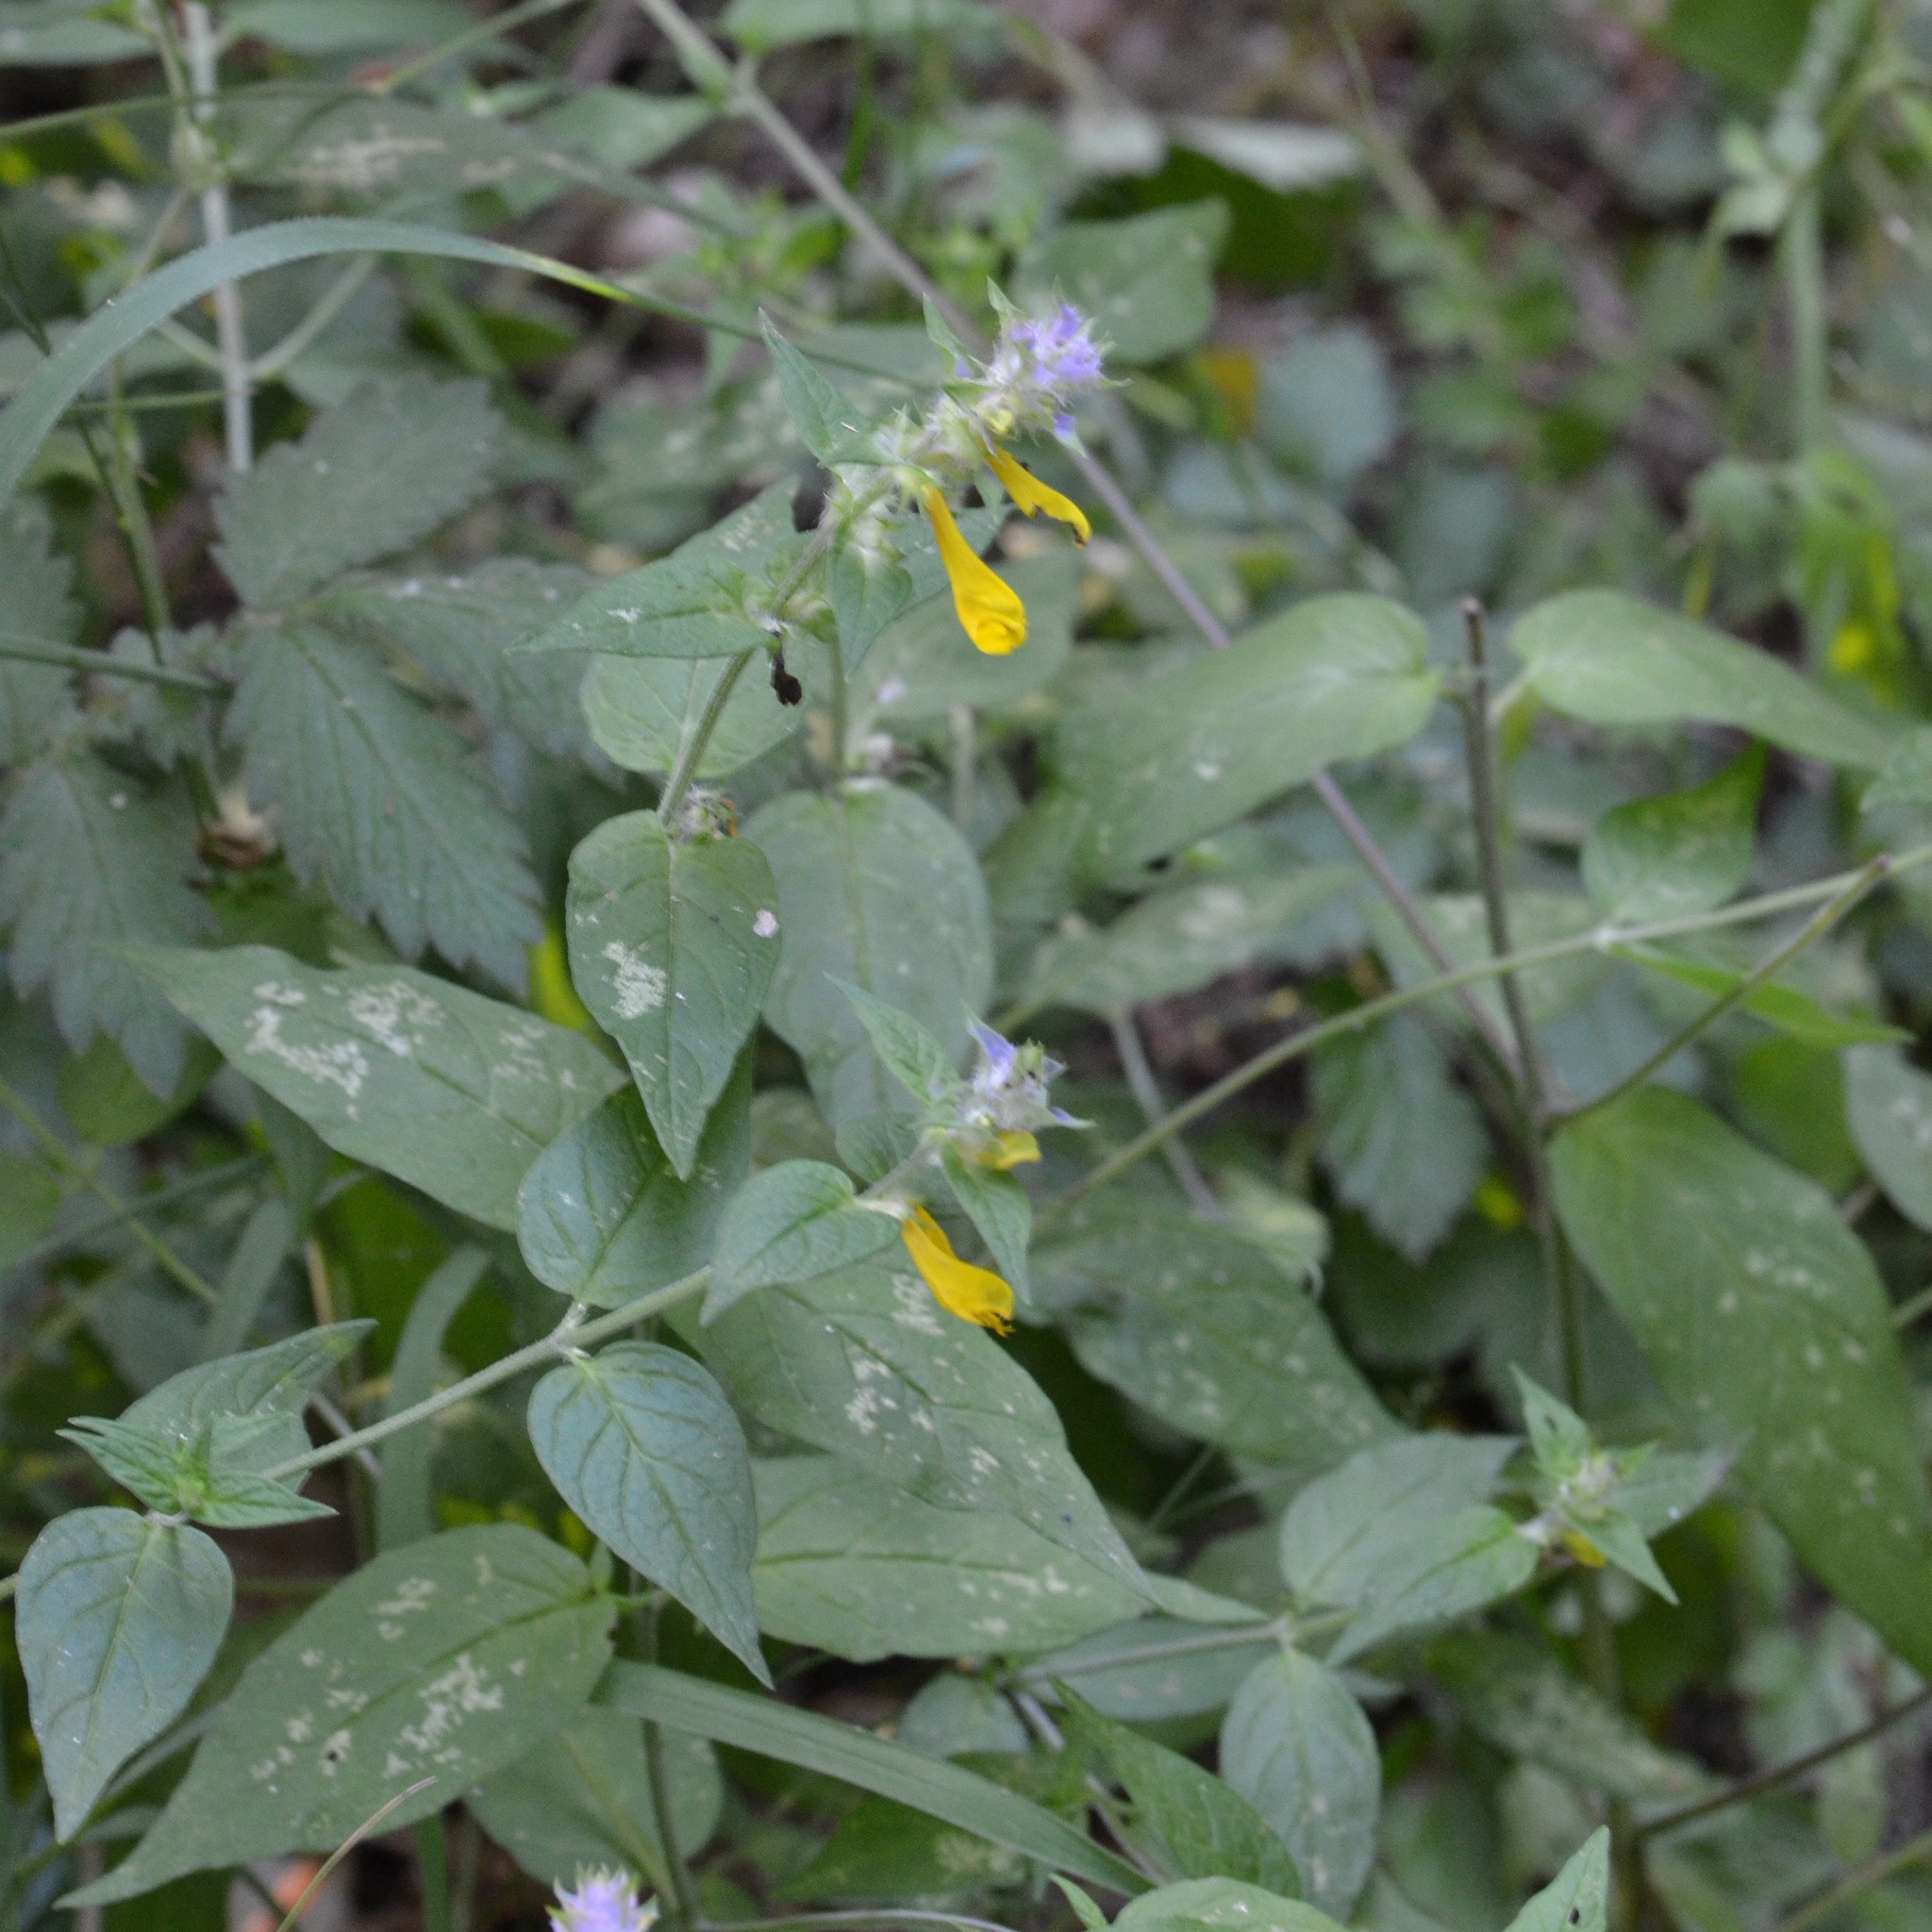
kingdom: Plantae
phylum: Tracheophyta
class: Magnoliopsida
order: Lamiales
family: Orobanchaceae
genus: Melampyrum
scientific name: Melampyrum nemorosum
